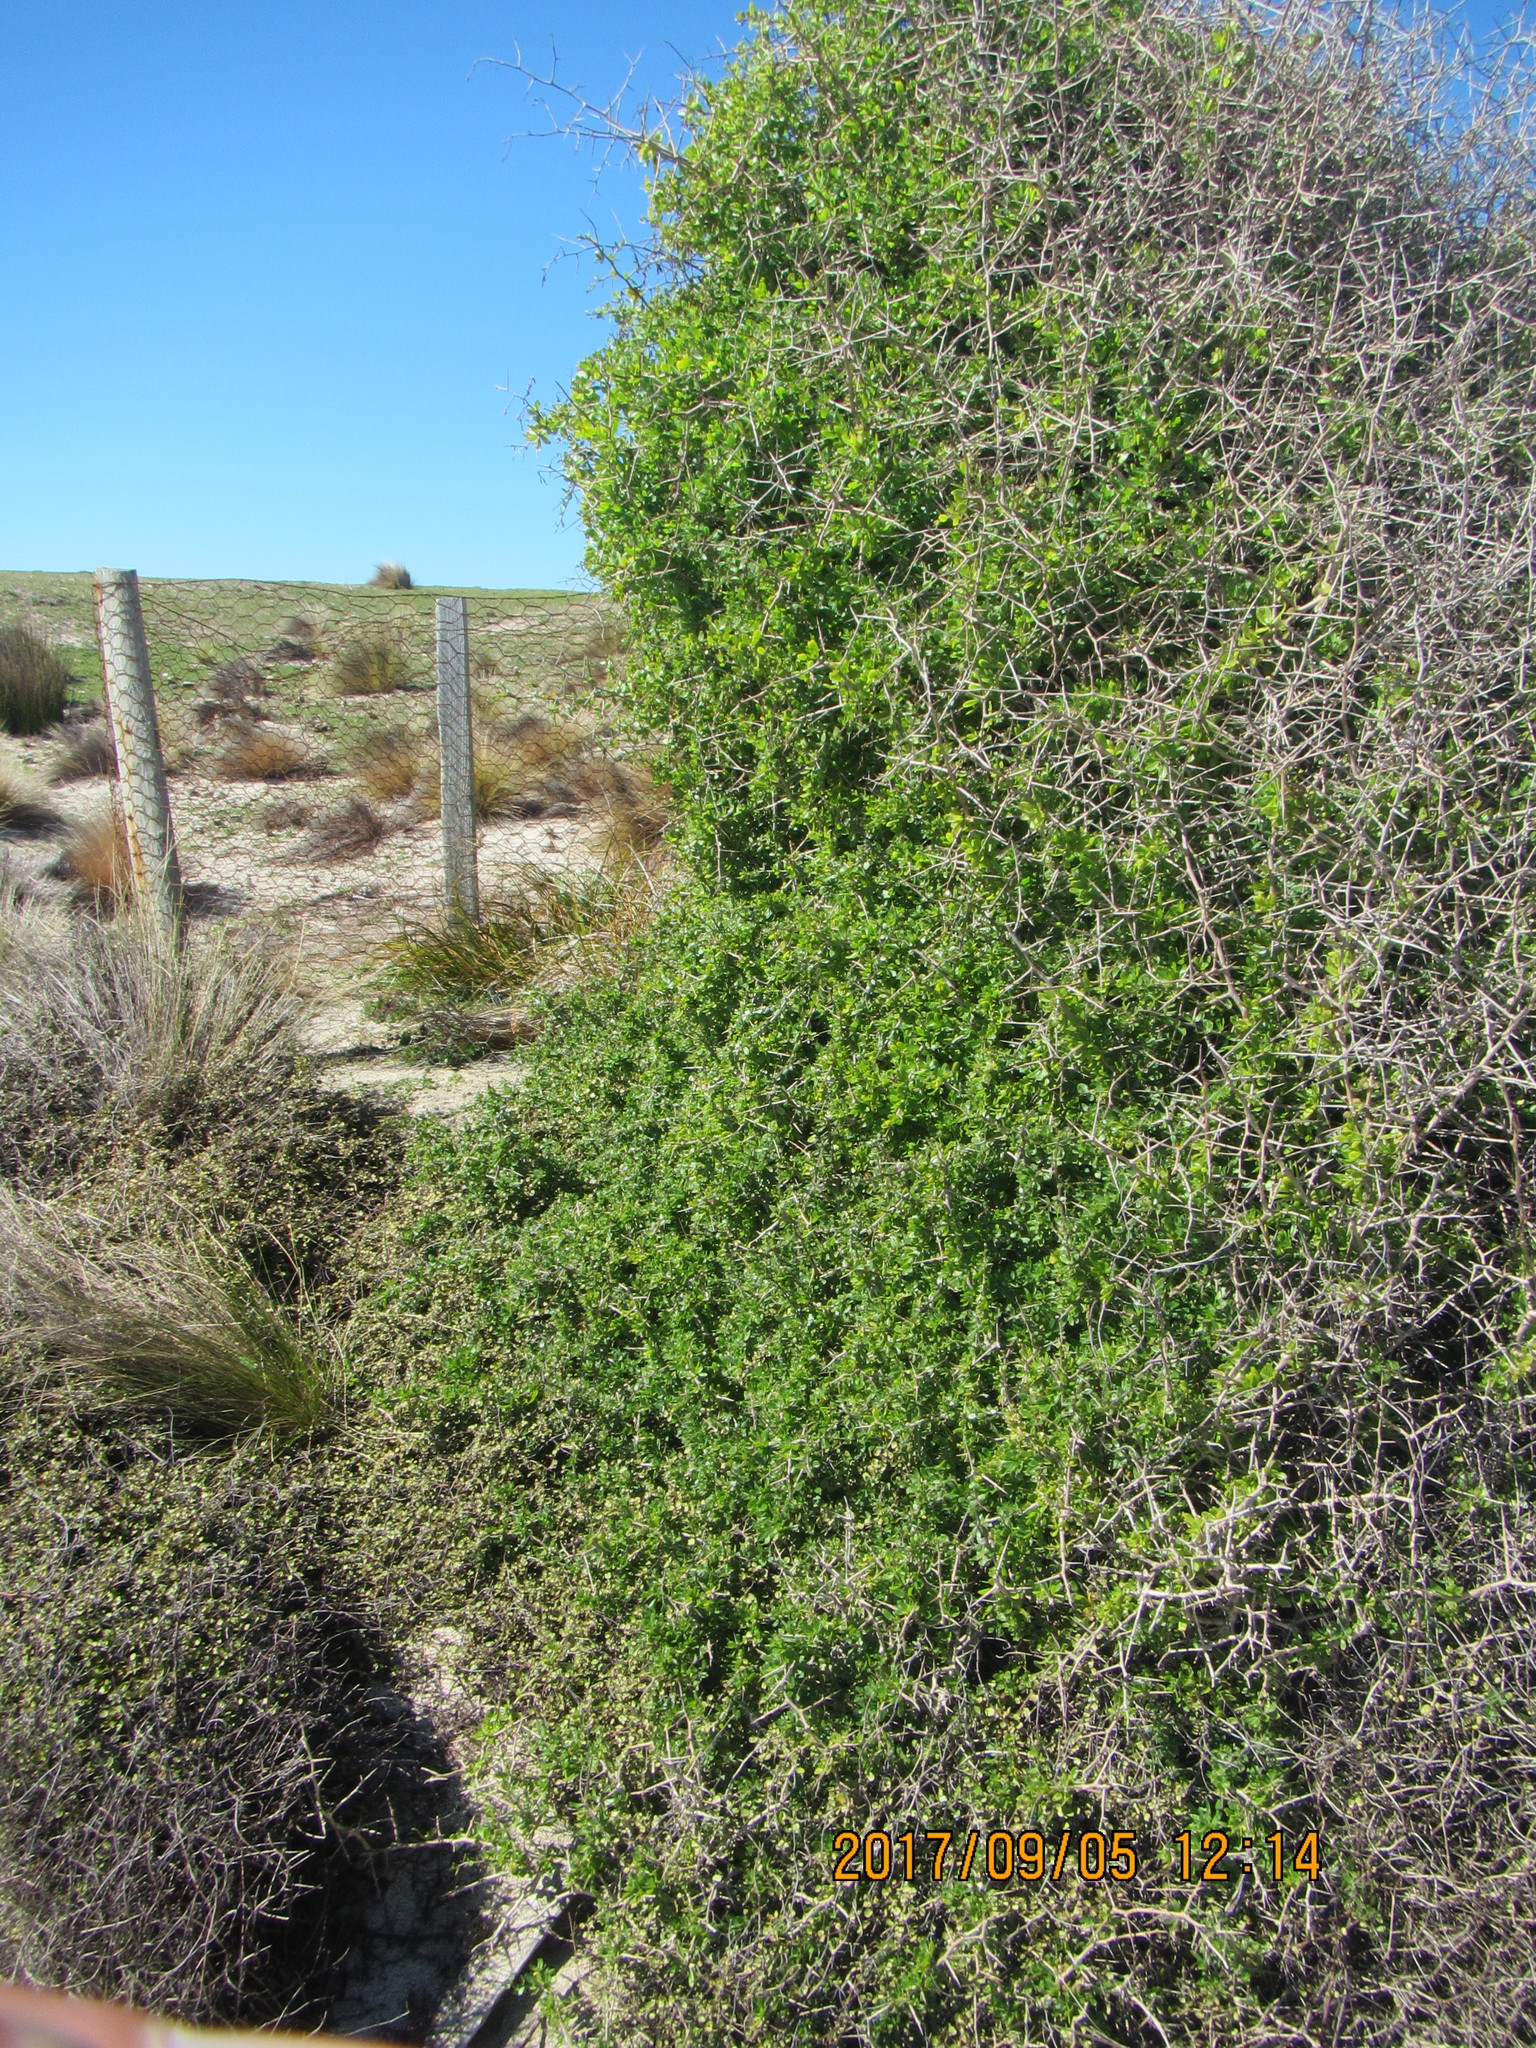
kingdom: Plantae
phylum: Tracheophyta
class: Magnoliopsida
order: Solanales
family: Solanaceae
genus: Lycium
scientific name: Lycium ferocissimum
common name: African boxthorn
